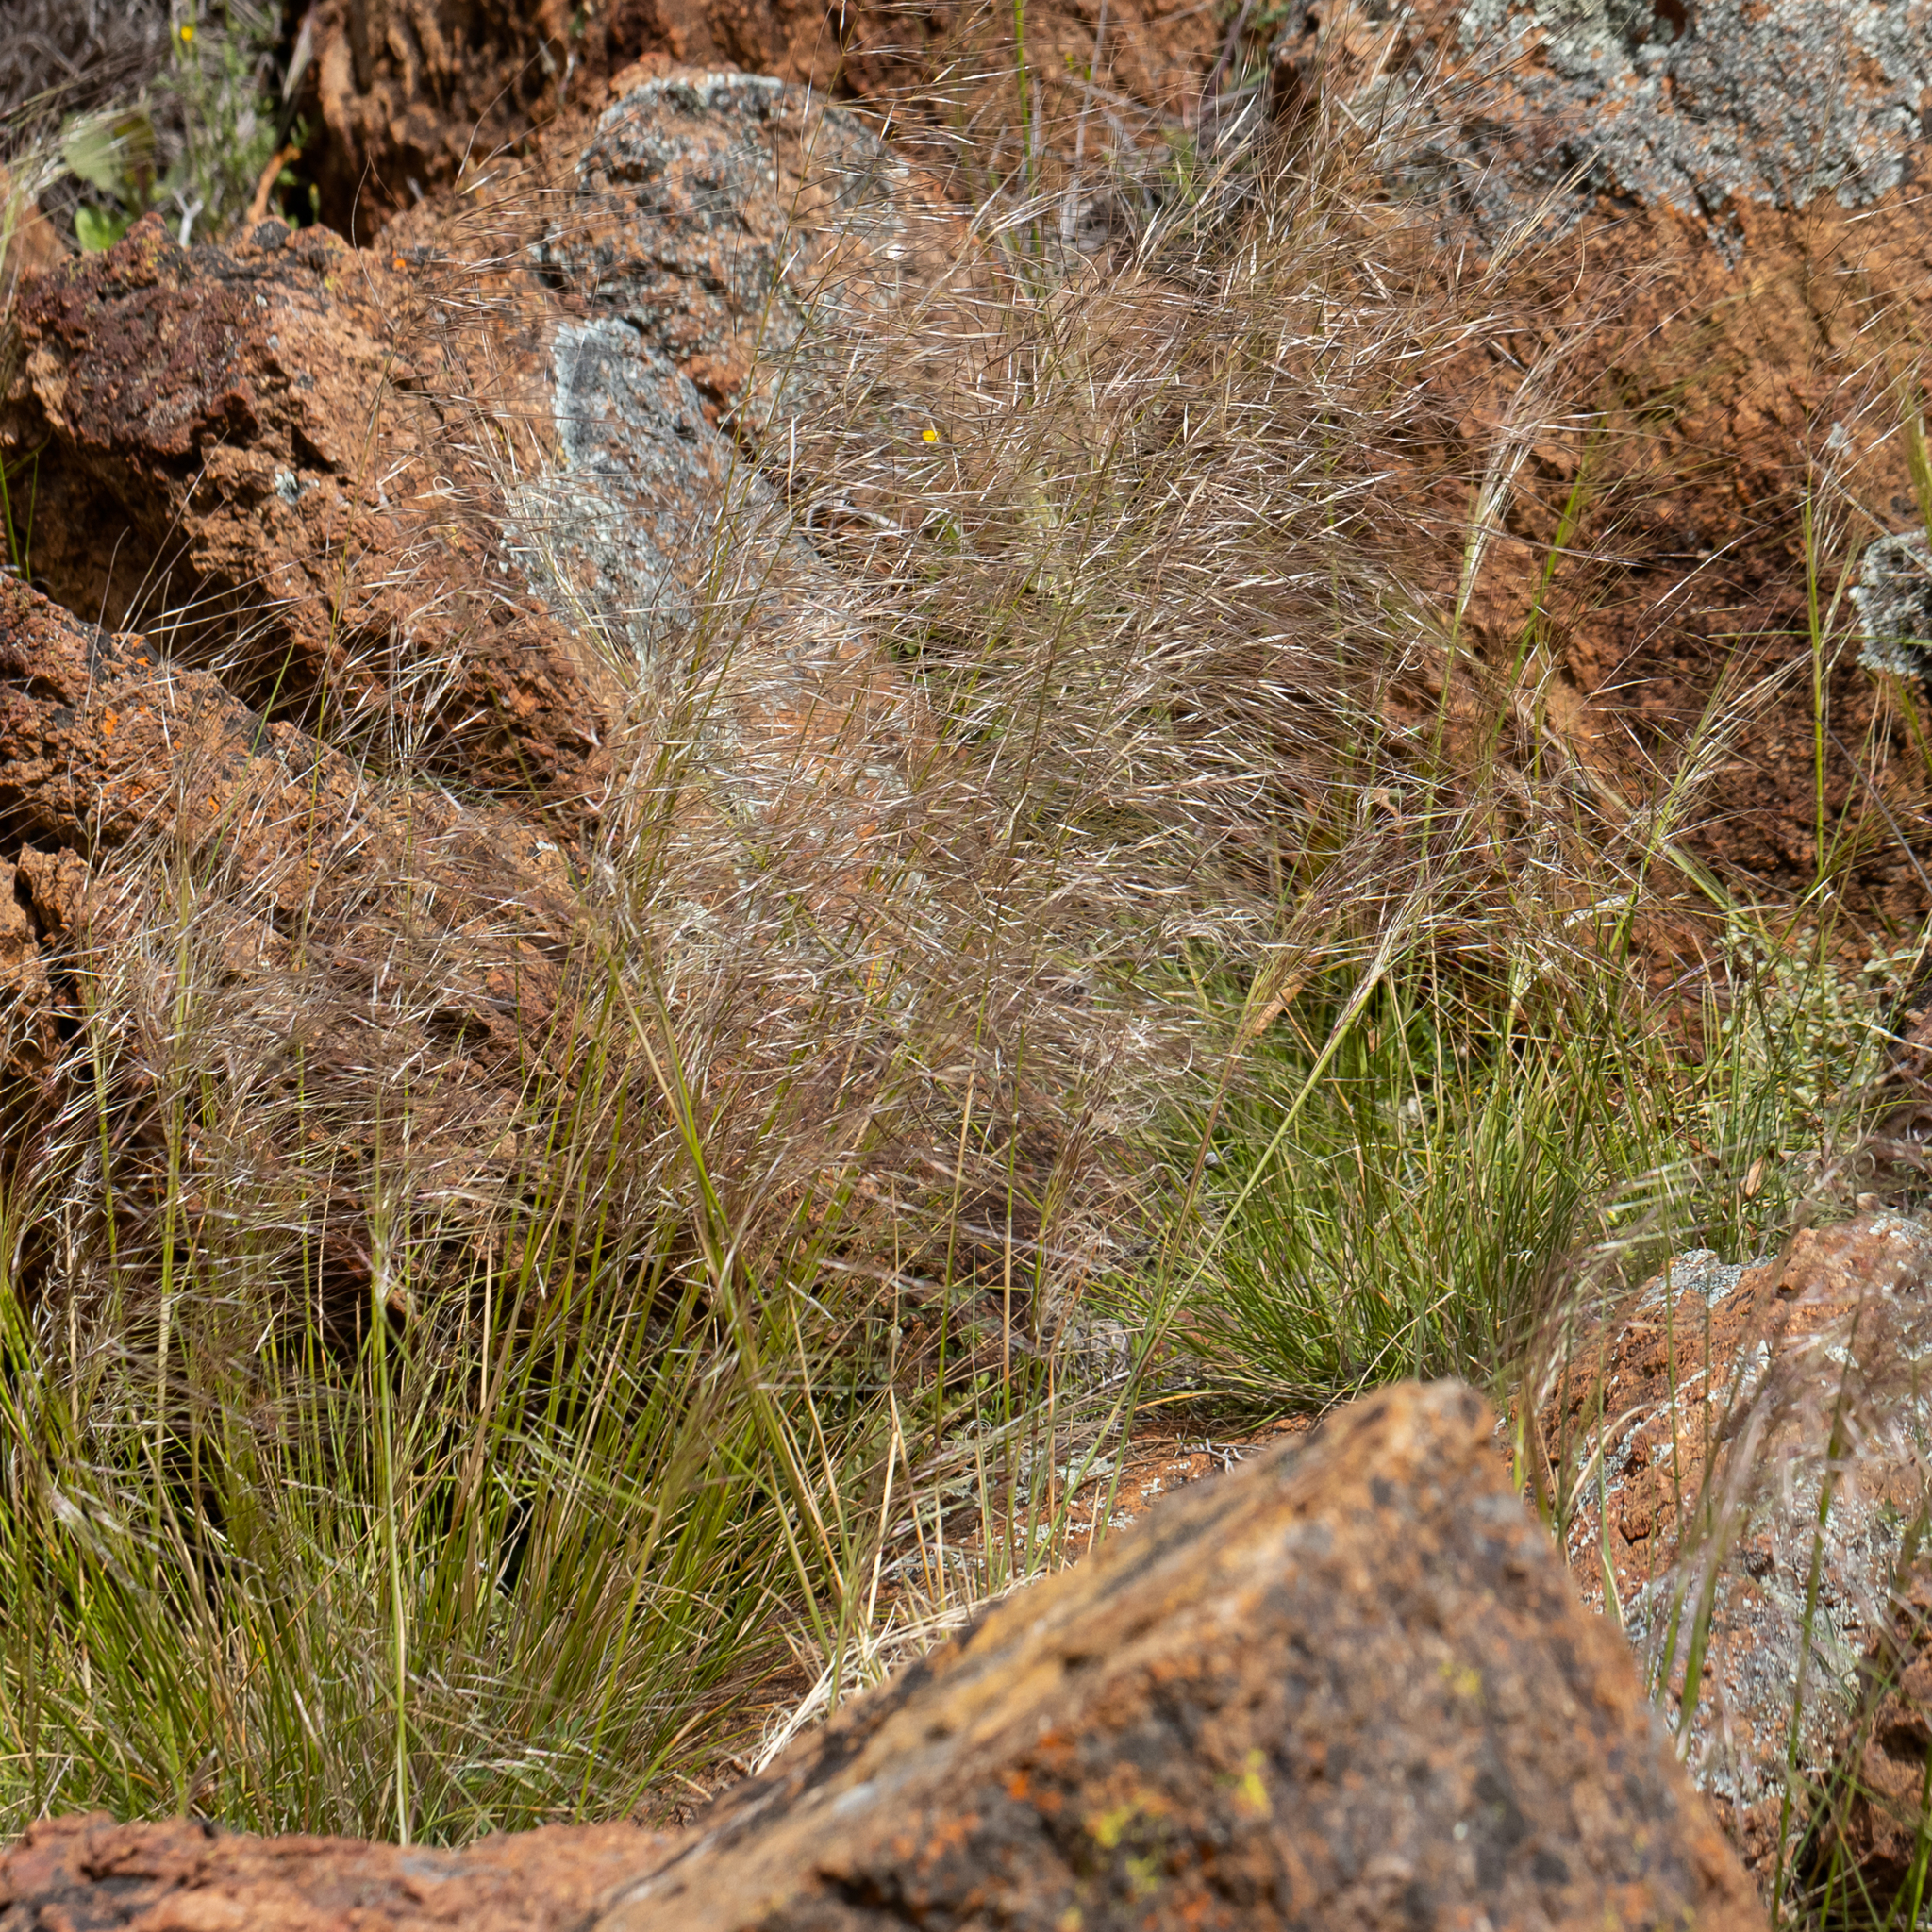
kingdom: Plantae
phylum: Tracheophyta
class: Liliopsida
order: Poales
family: Poaceae
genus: Austrostipa
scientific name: Austrostipa eremophila
